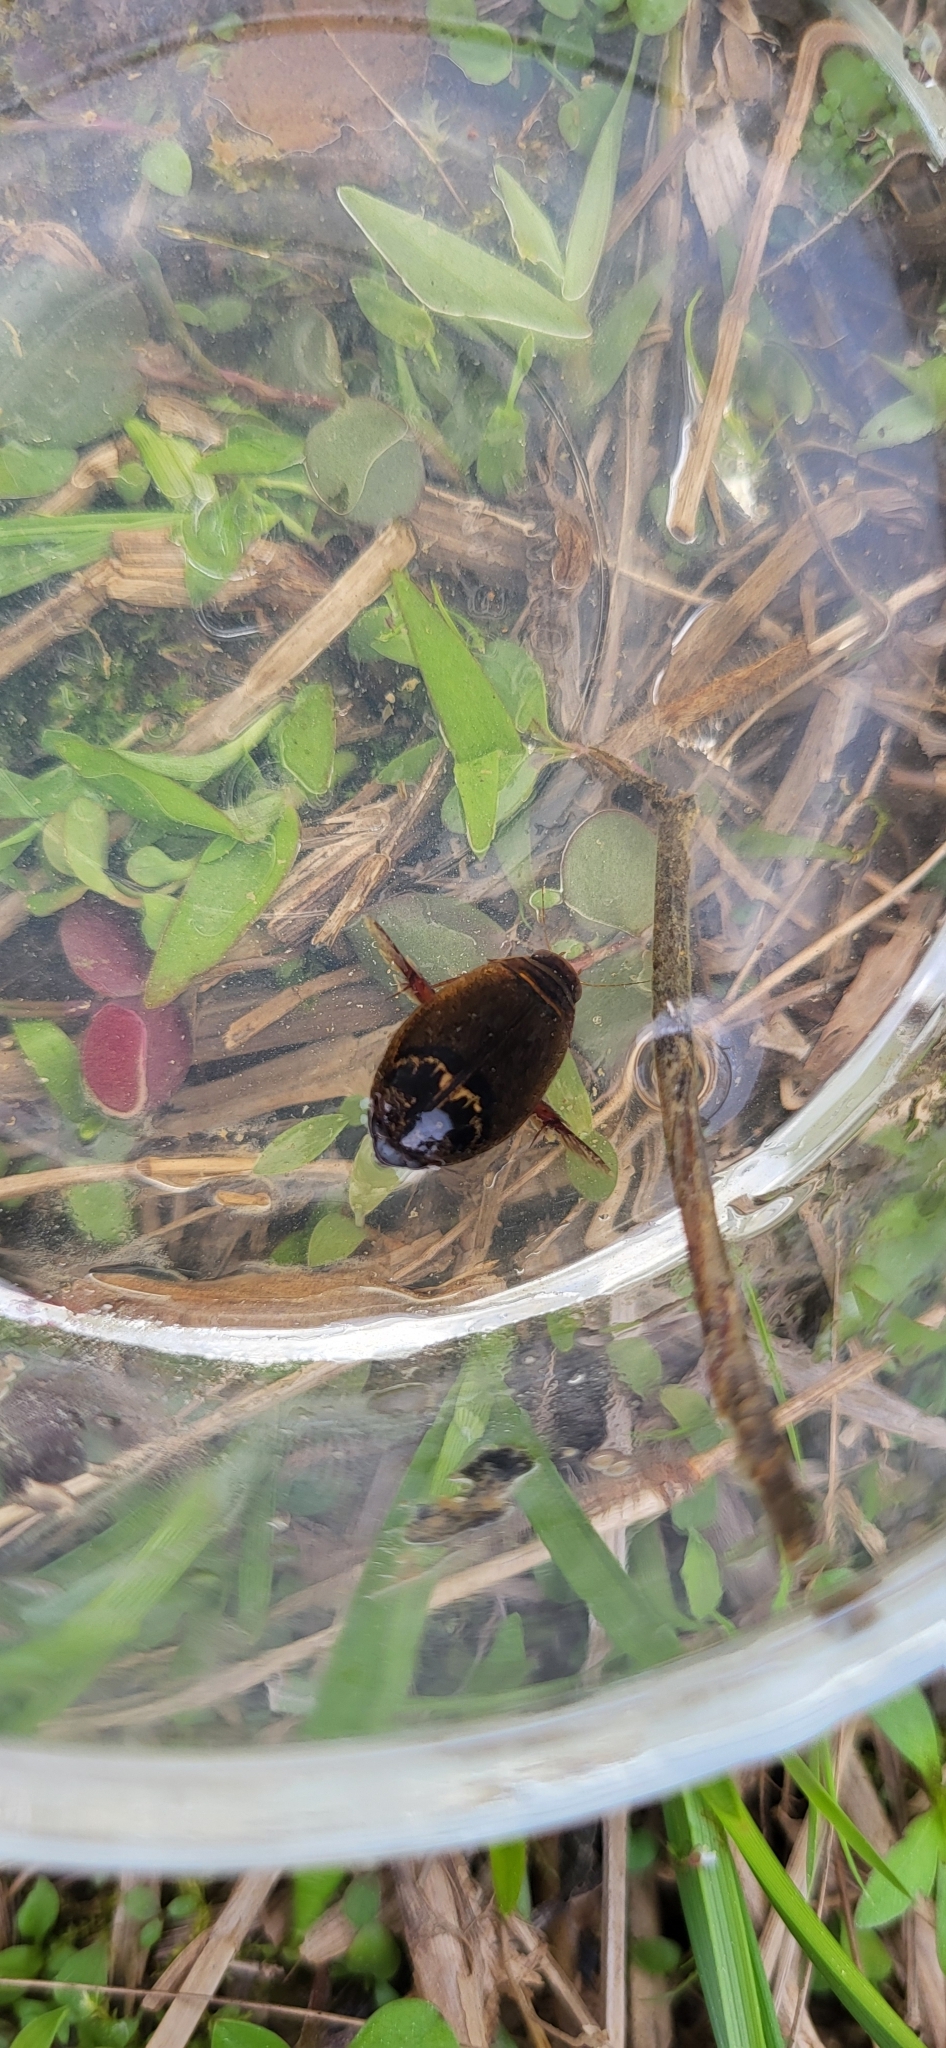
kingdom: Animalia
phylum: Arthropoda
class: Insecta
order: Coleoptera
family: Dytiscidae
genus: Acilius
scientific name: Acilius fraternus
